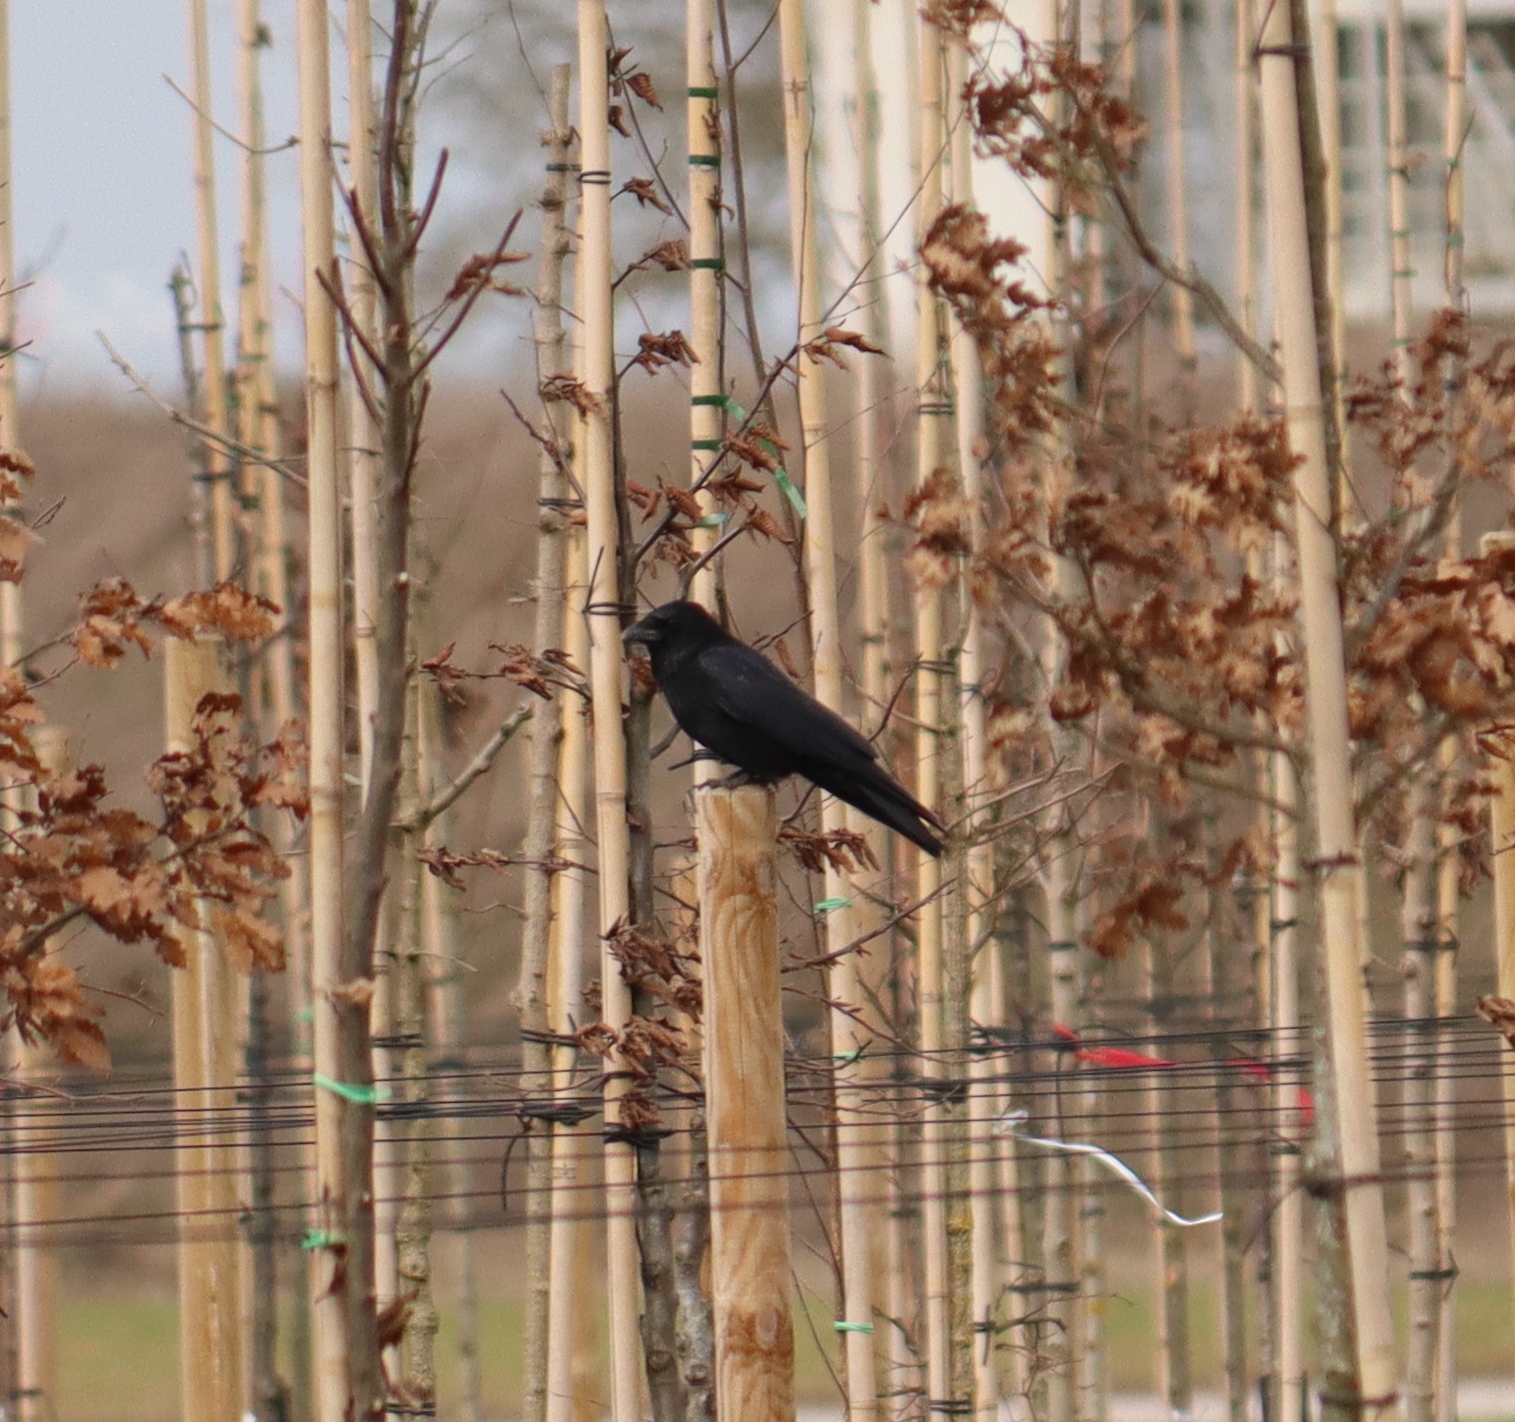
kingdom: Animalia
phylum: Chordata
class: Aves
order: Passeriformes
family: Corvidae
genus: Corvus
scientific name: Corvus corone
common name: Carrion crow
